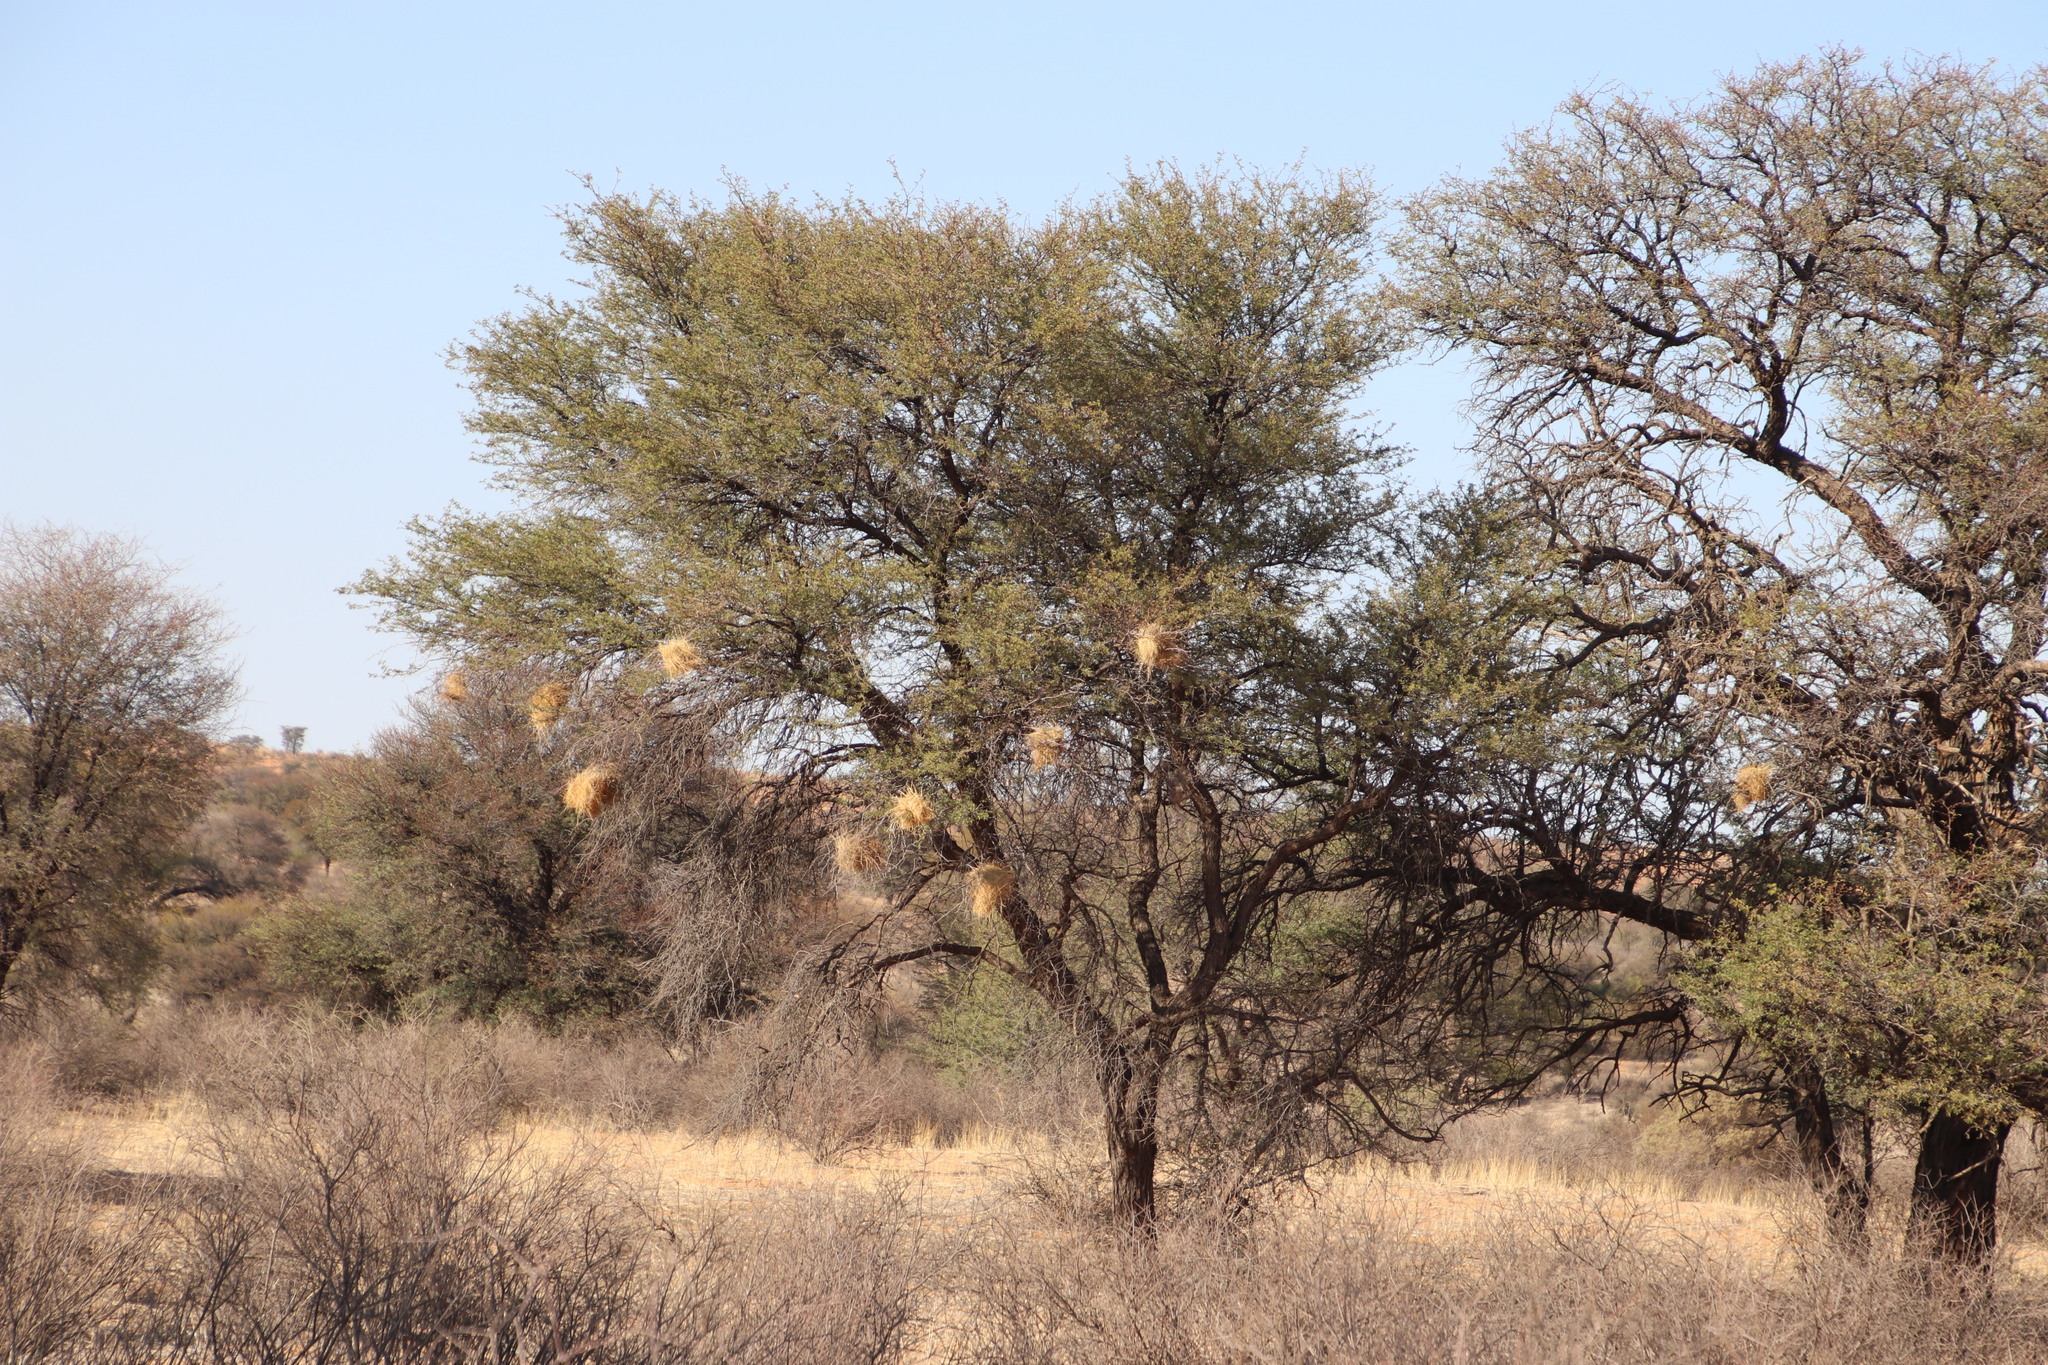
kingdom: Animalia
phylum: Chordata
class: Aves
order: Passeriformes
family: Passeridae
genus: Plocepasser
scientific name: Plocepasser mahali
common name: White-browed sparrow-weaver
